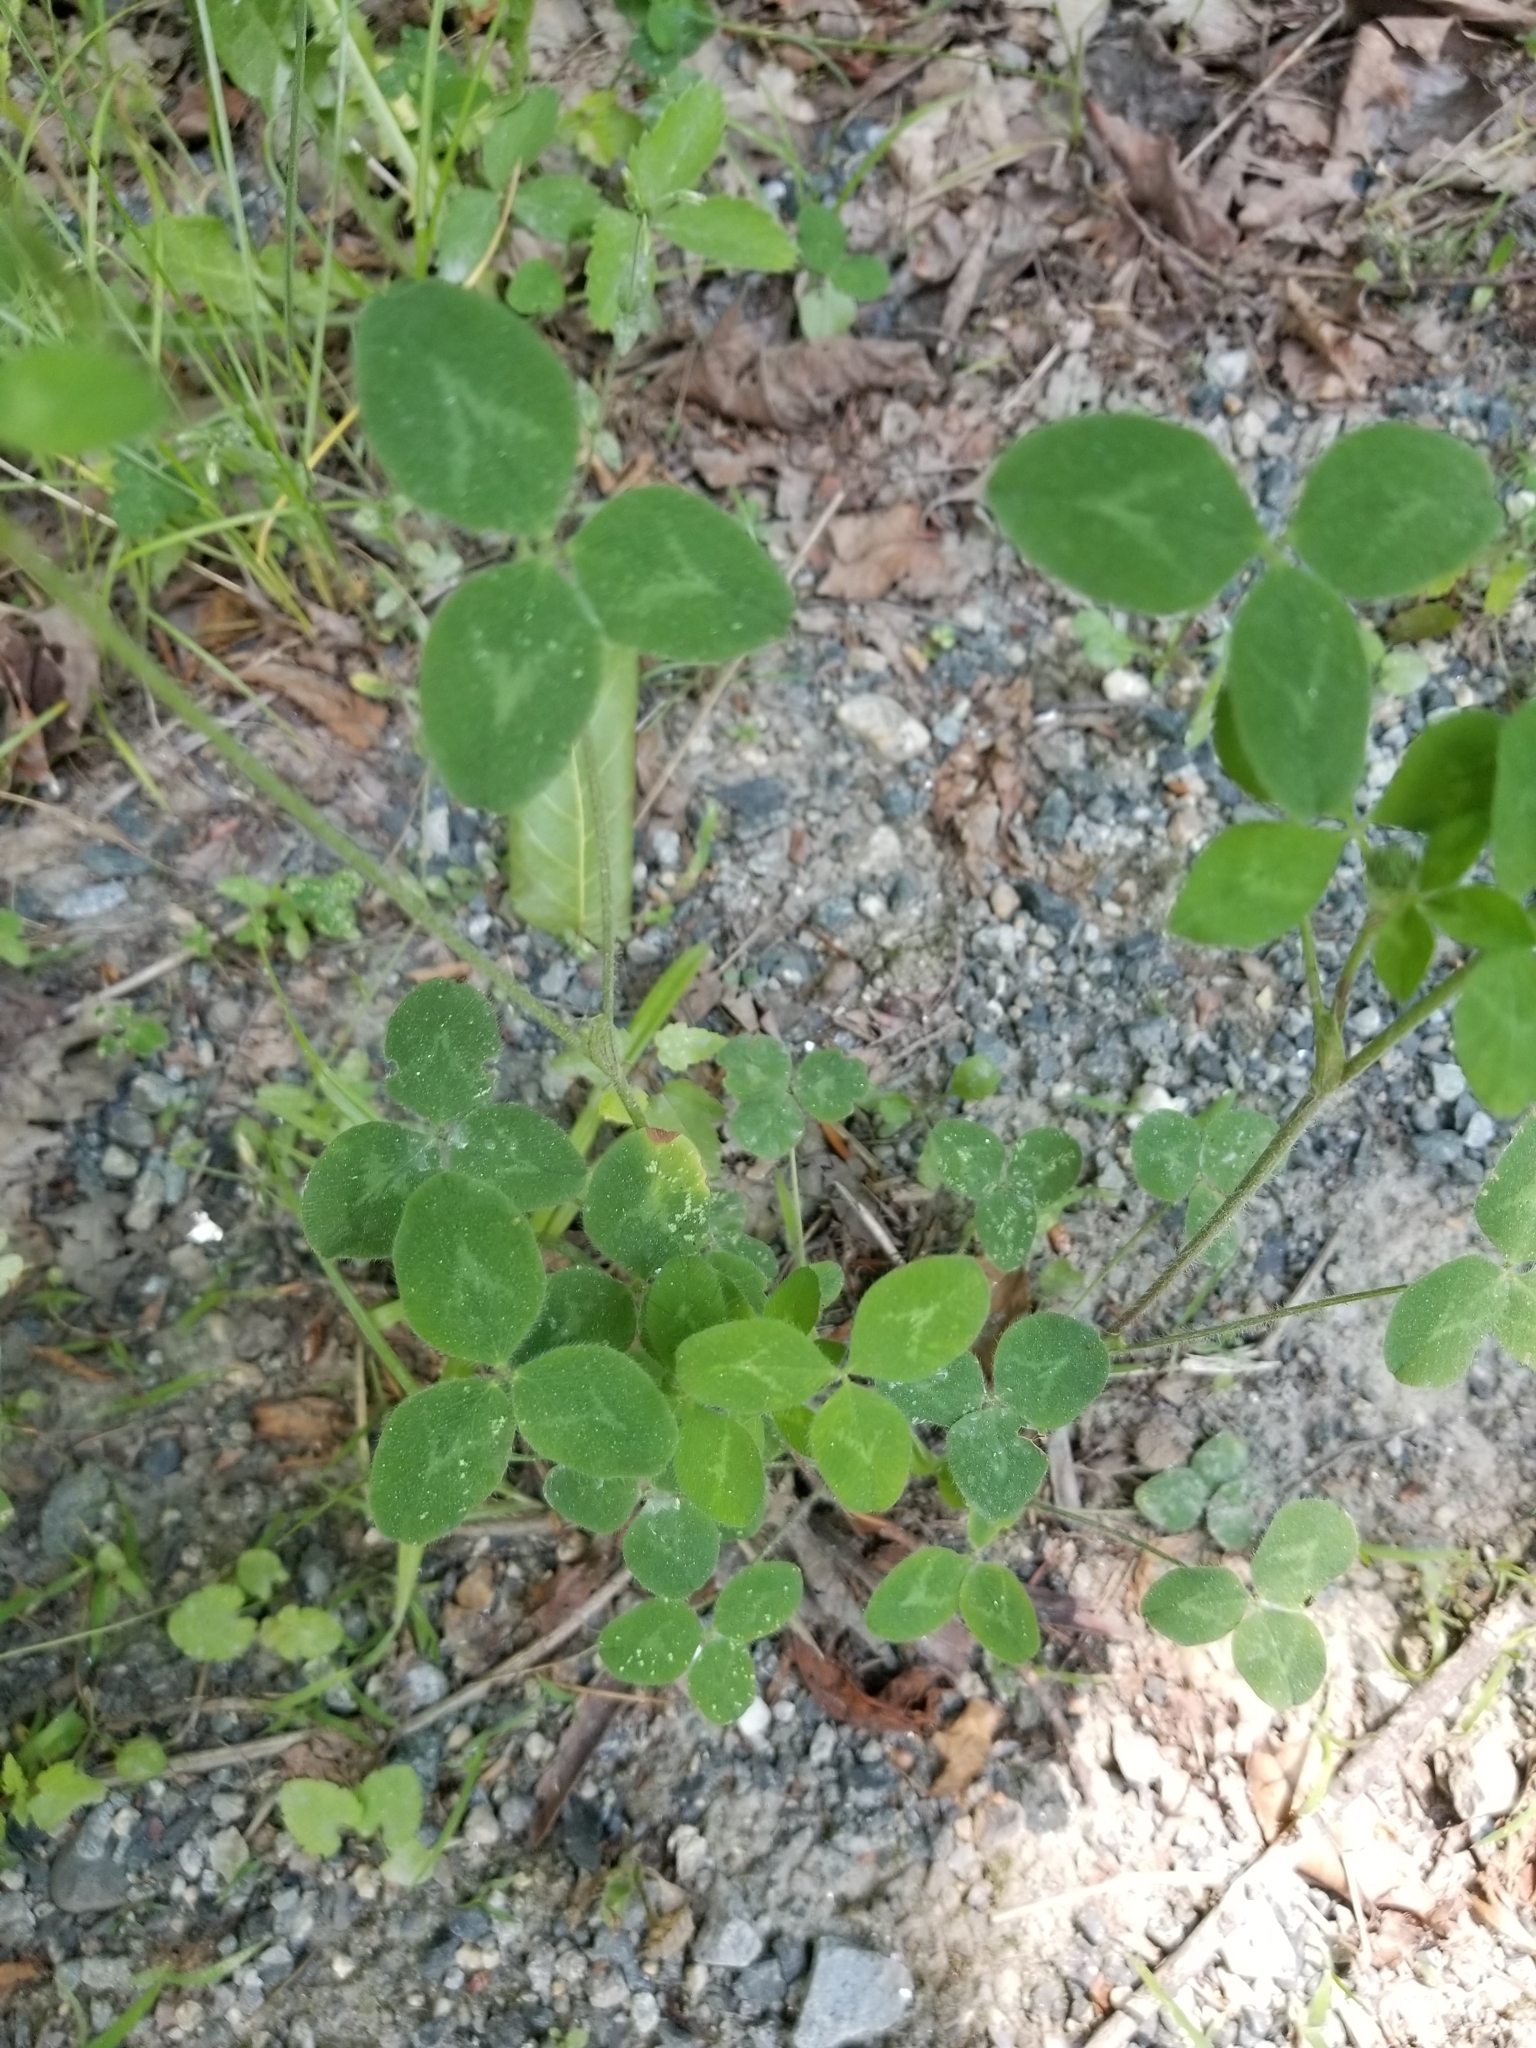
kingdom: Plantae
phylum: Tracheophyta
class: Magnoliopsida
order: Fabales
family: Fabaceae
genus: Trifolium
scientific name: Trifolium pratense
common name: Red clover
